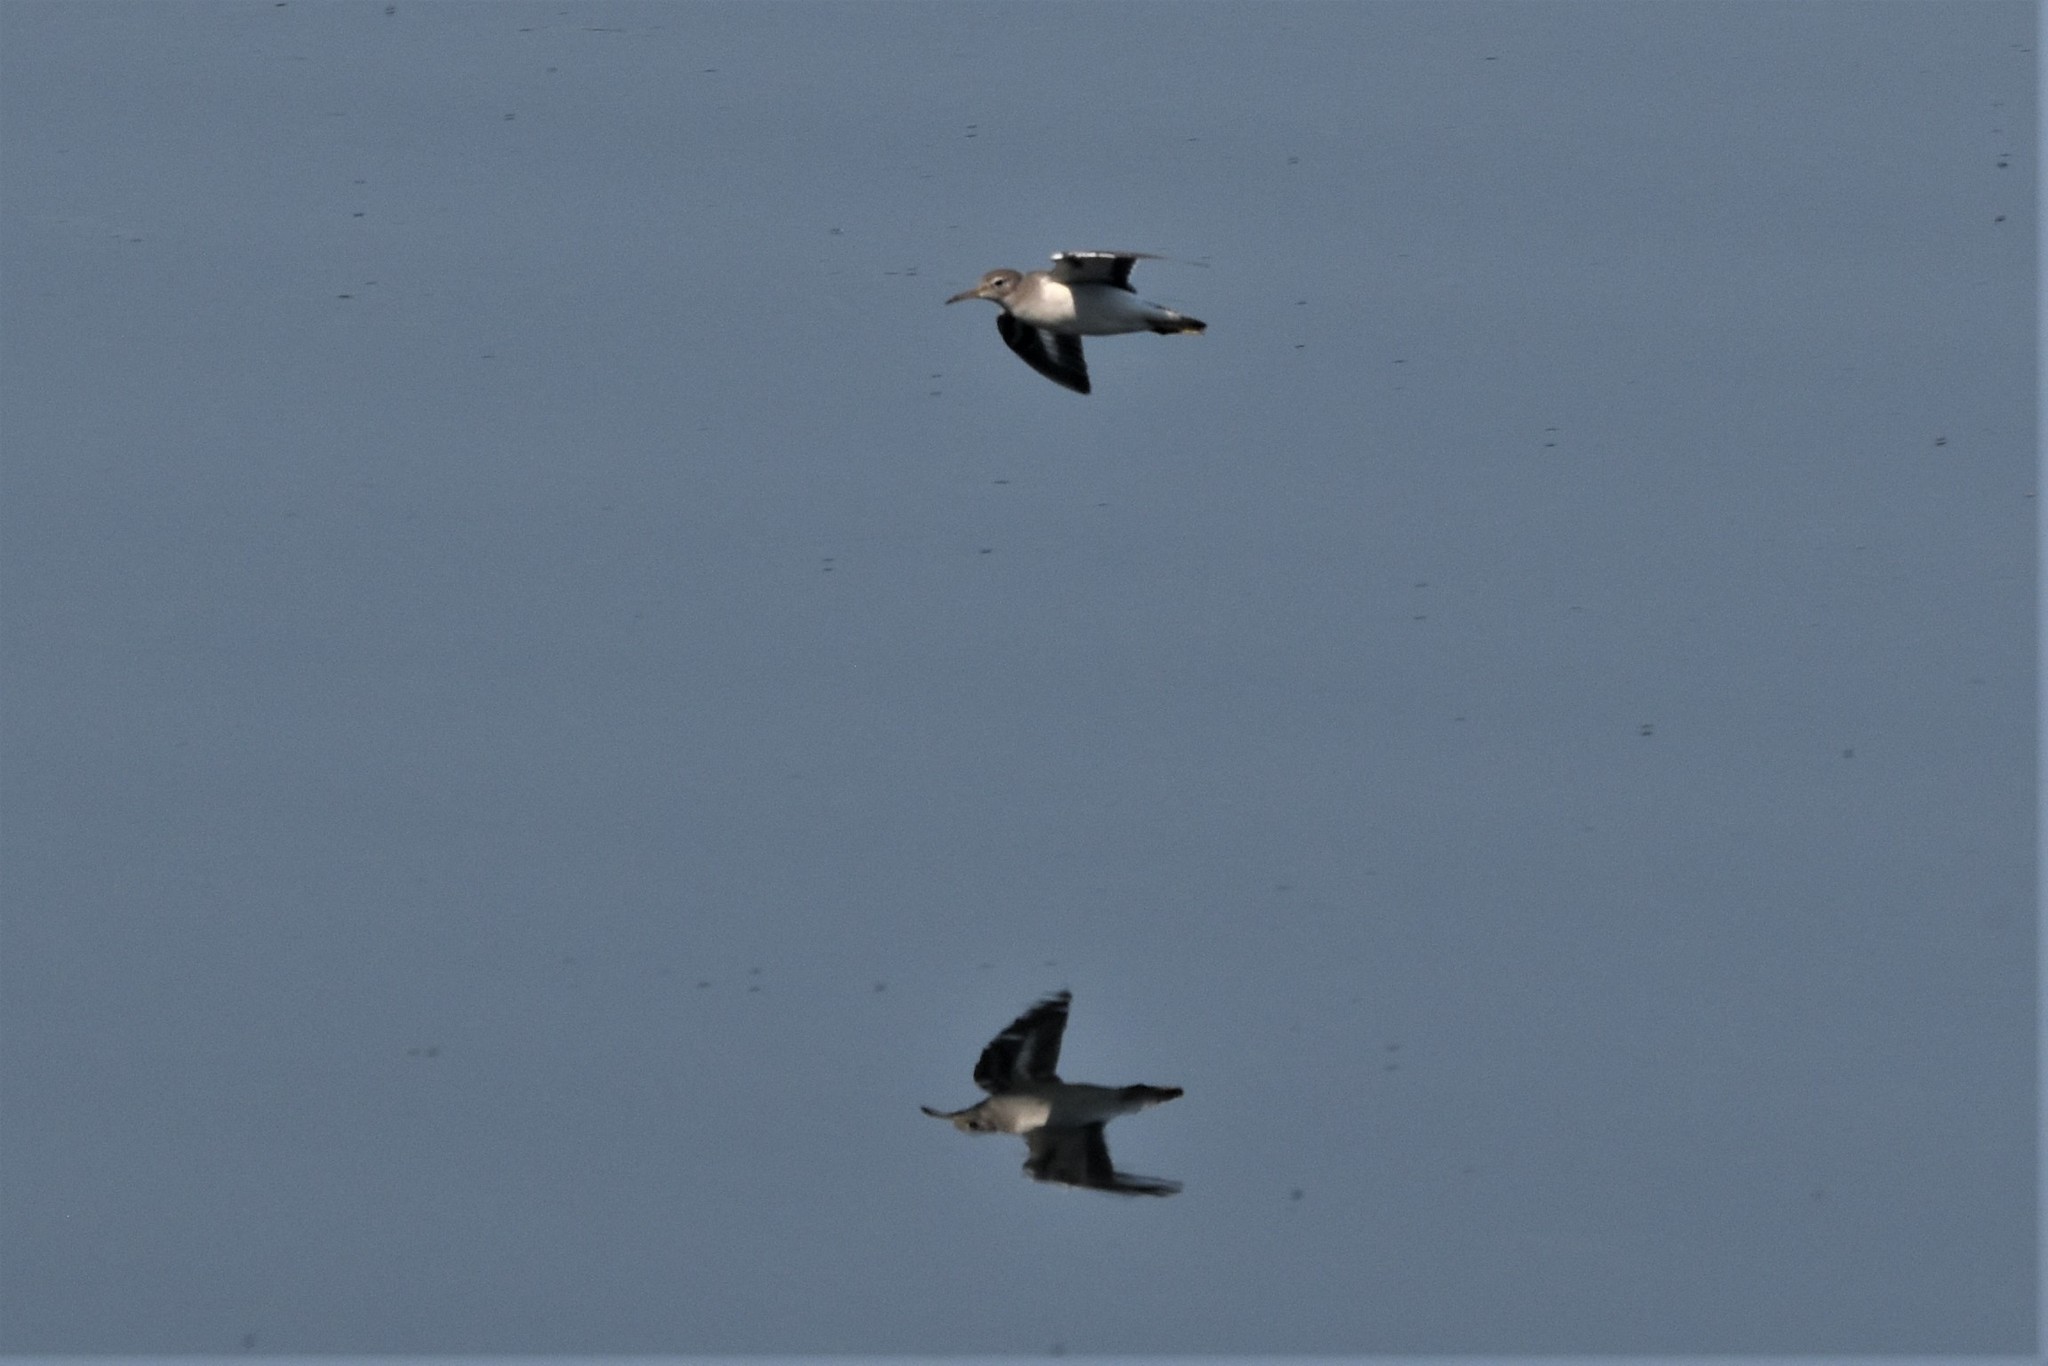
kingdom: Animalia
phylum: Chordata
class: Aves
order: Charadriiformes
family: Scolopacidae
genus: Actitis
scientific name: Actitis macularius
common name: Spotted sandpiper
